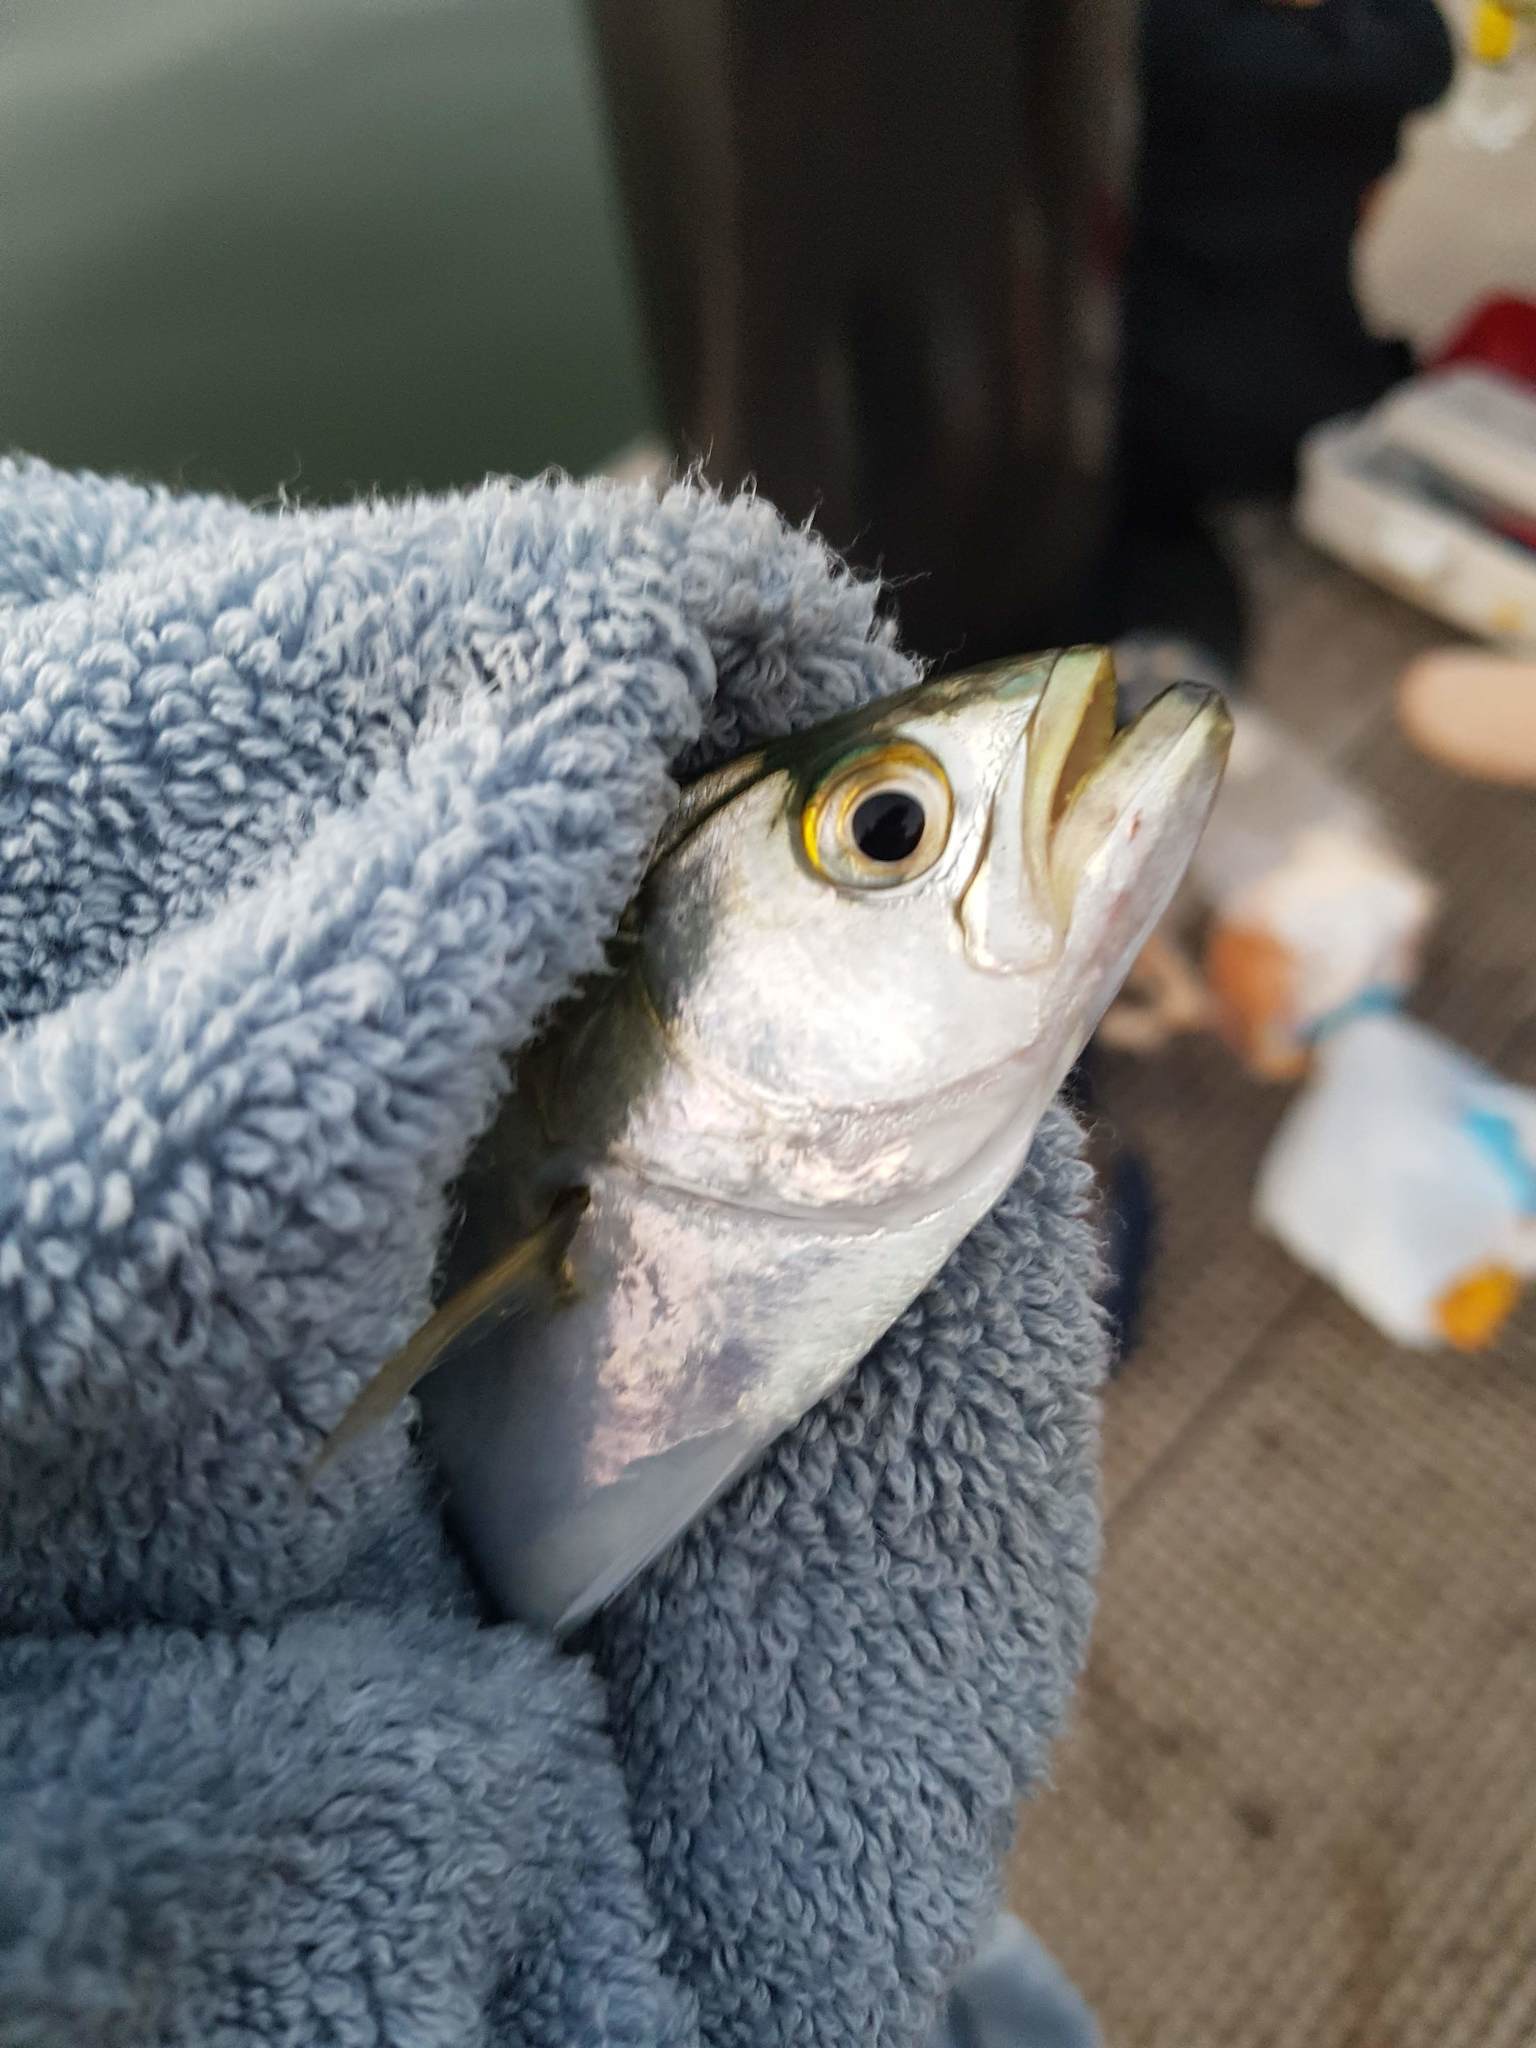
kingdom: Animalia
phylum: Chordata
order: Perciformes
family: Pomatomidae
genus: Pomatomus
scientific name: Pomatomus saltatrix
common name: Bluefish
